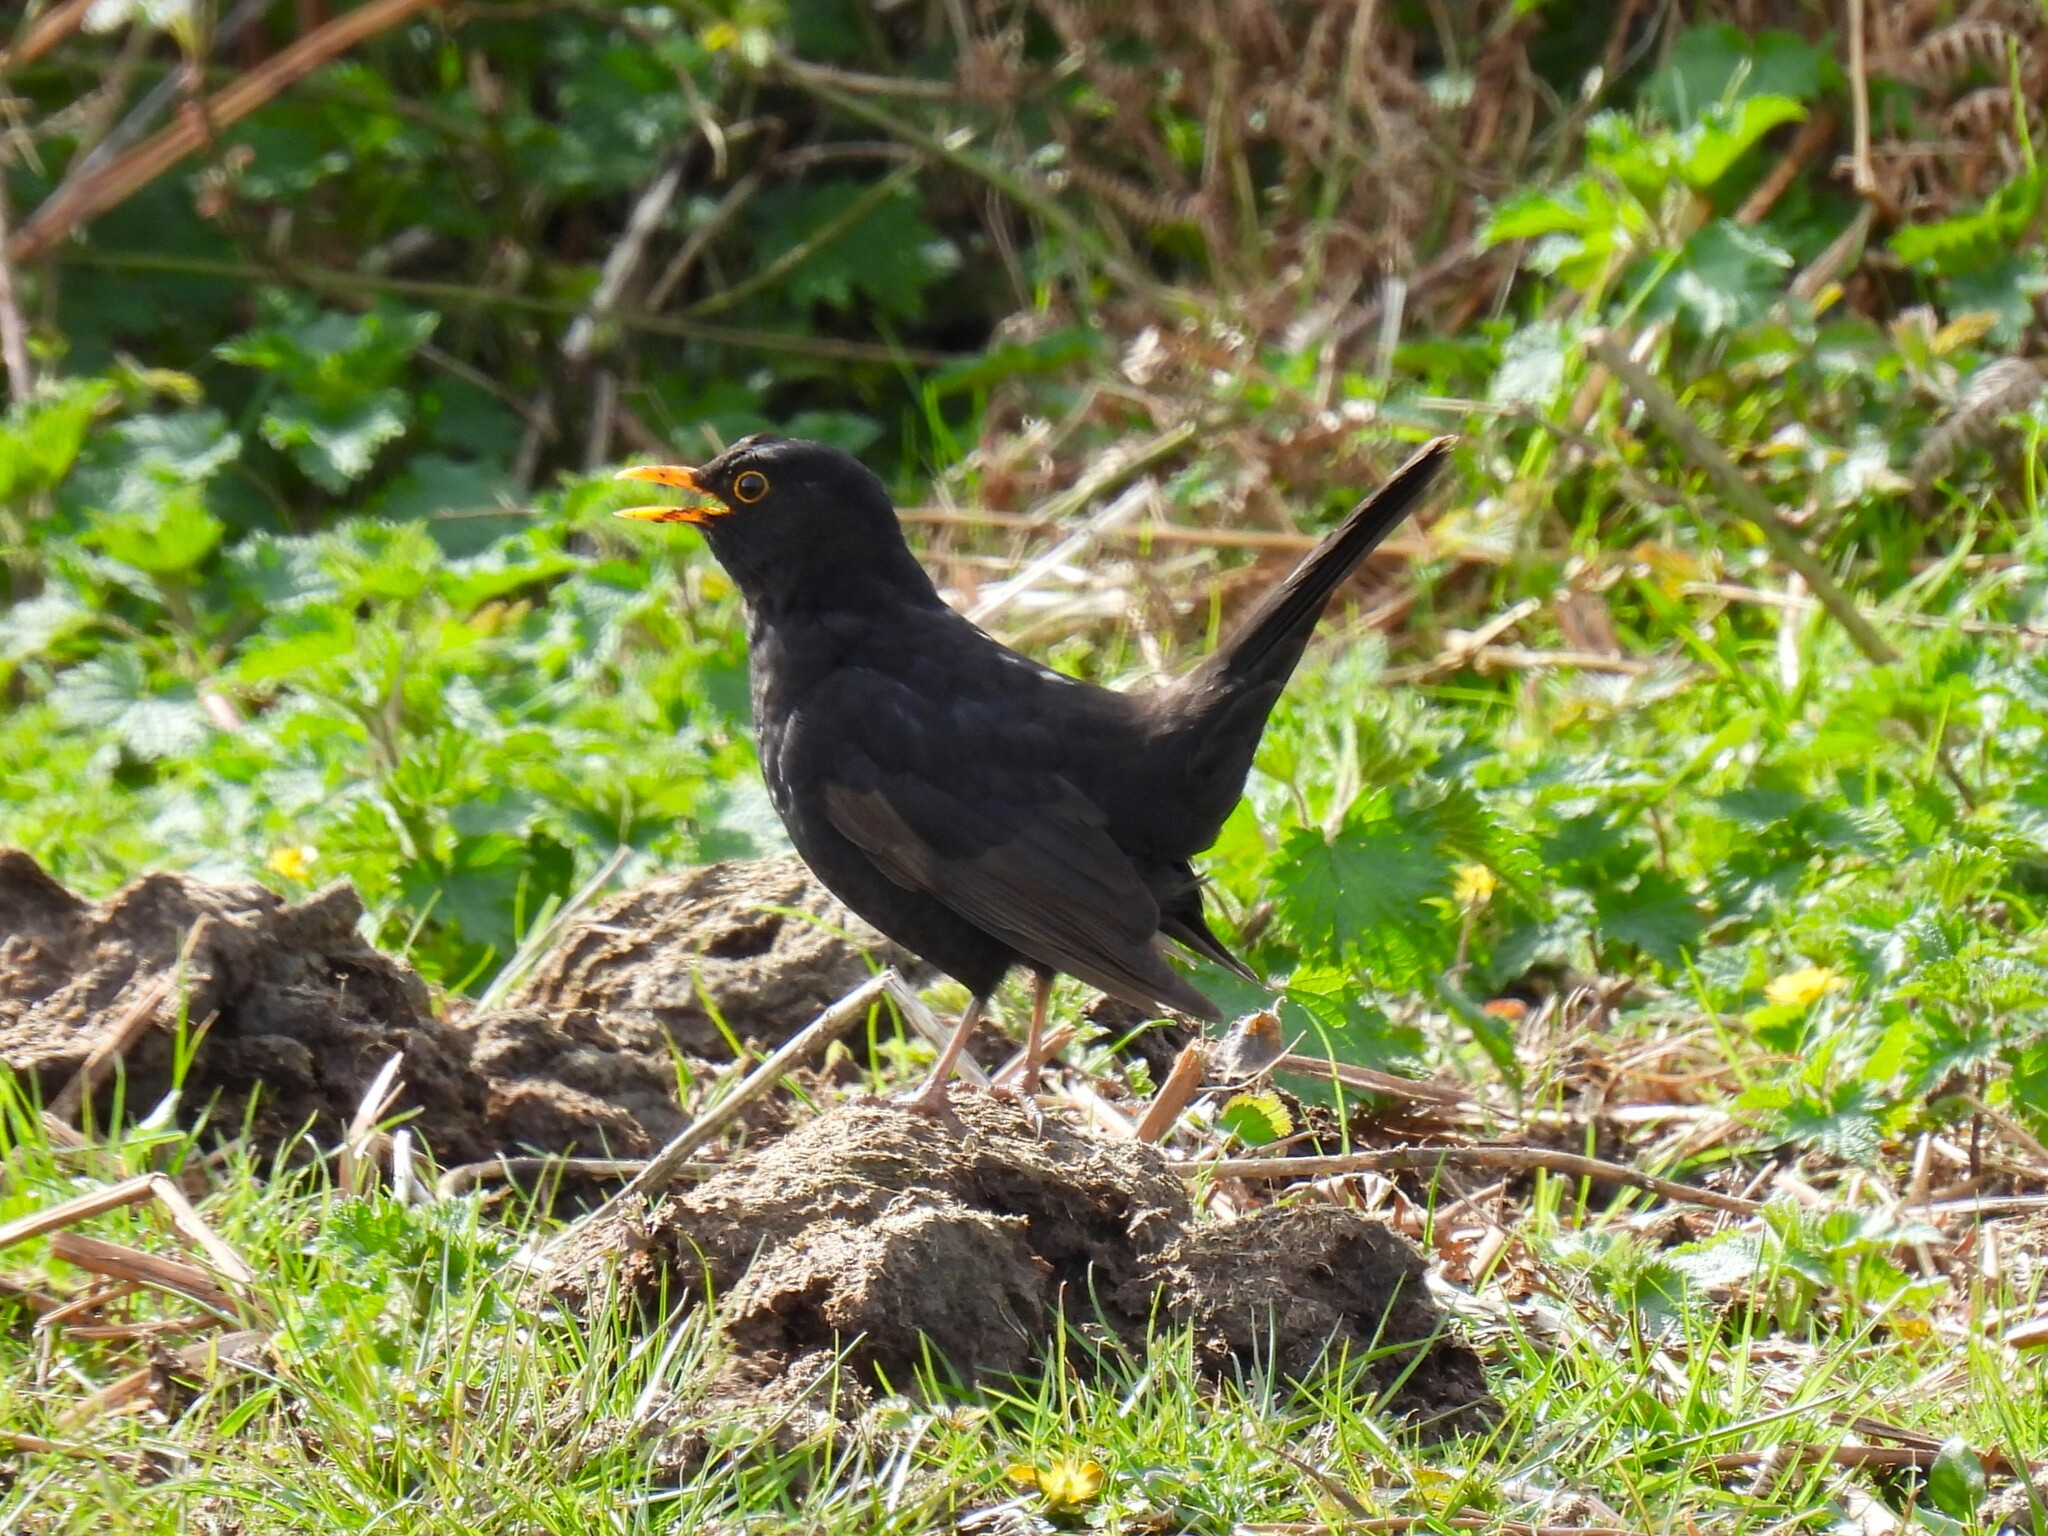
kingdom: Animalia
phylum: Chordata
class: Aves
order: Passeriformes
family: Turdidae
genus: Turdus
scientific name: Turdus merula
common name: Common blackbird
